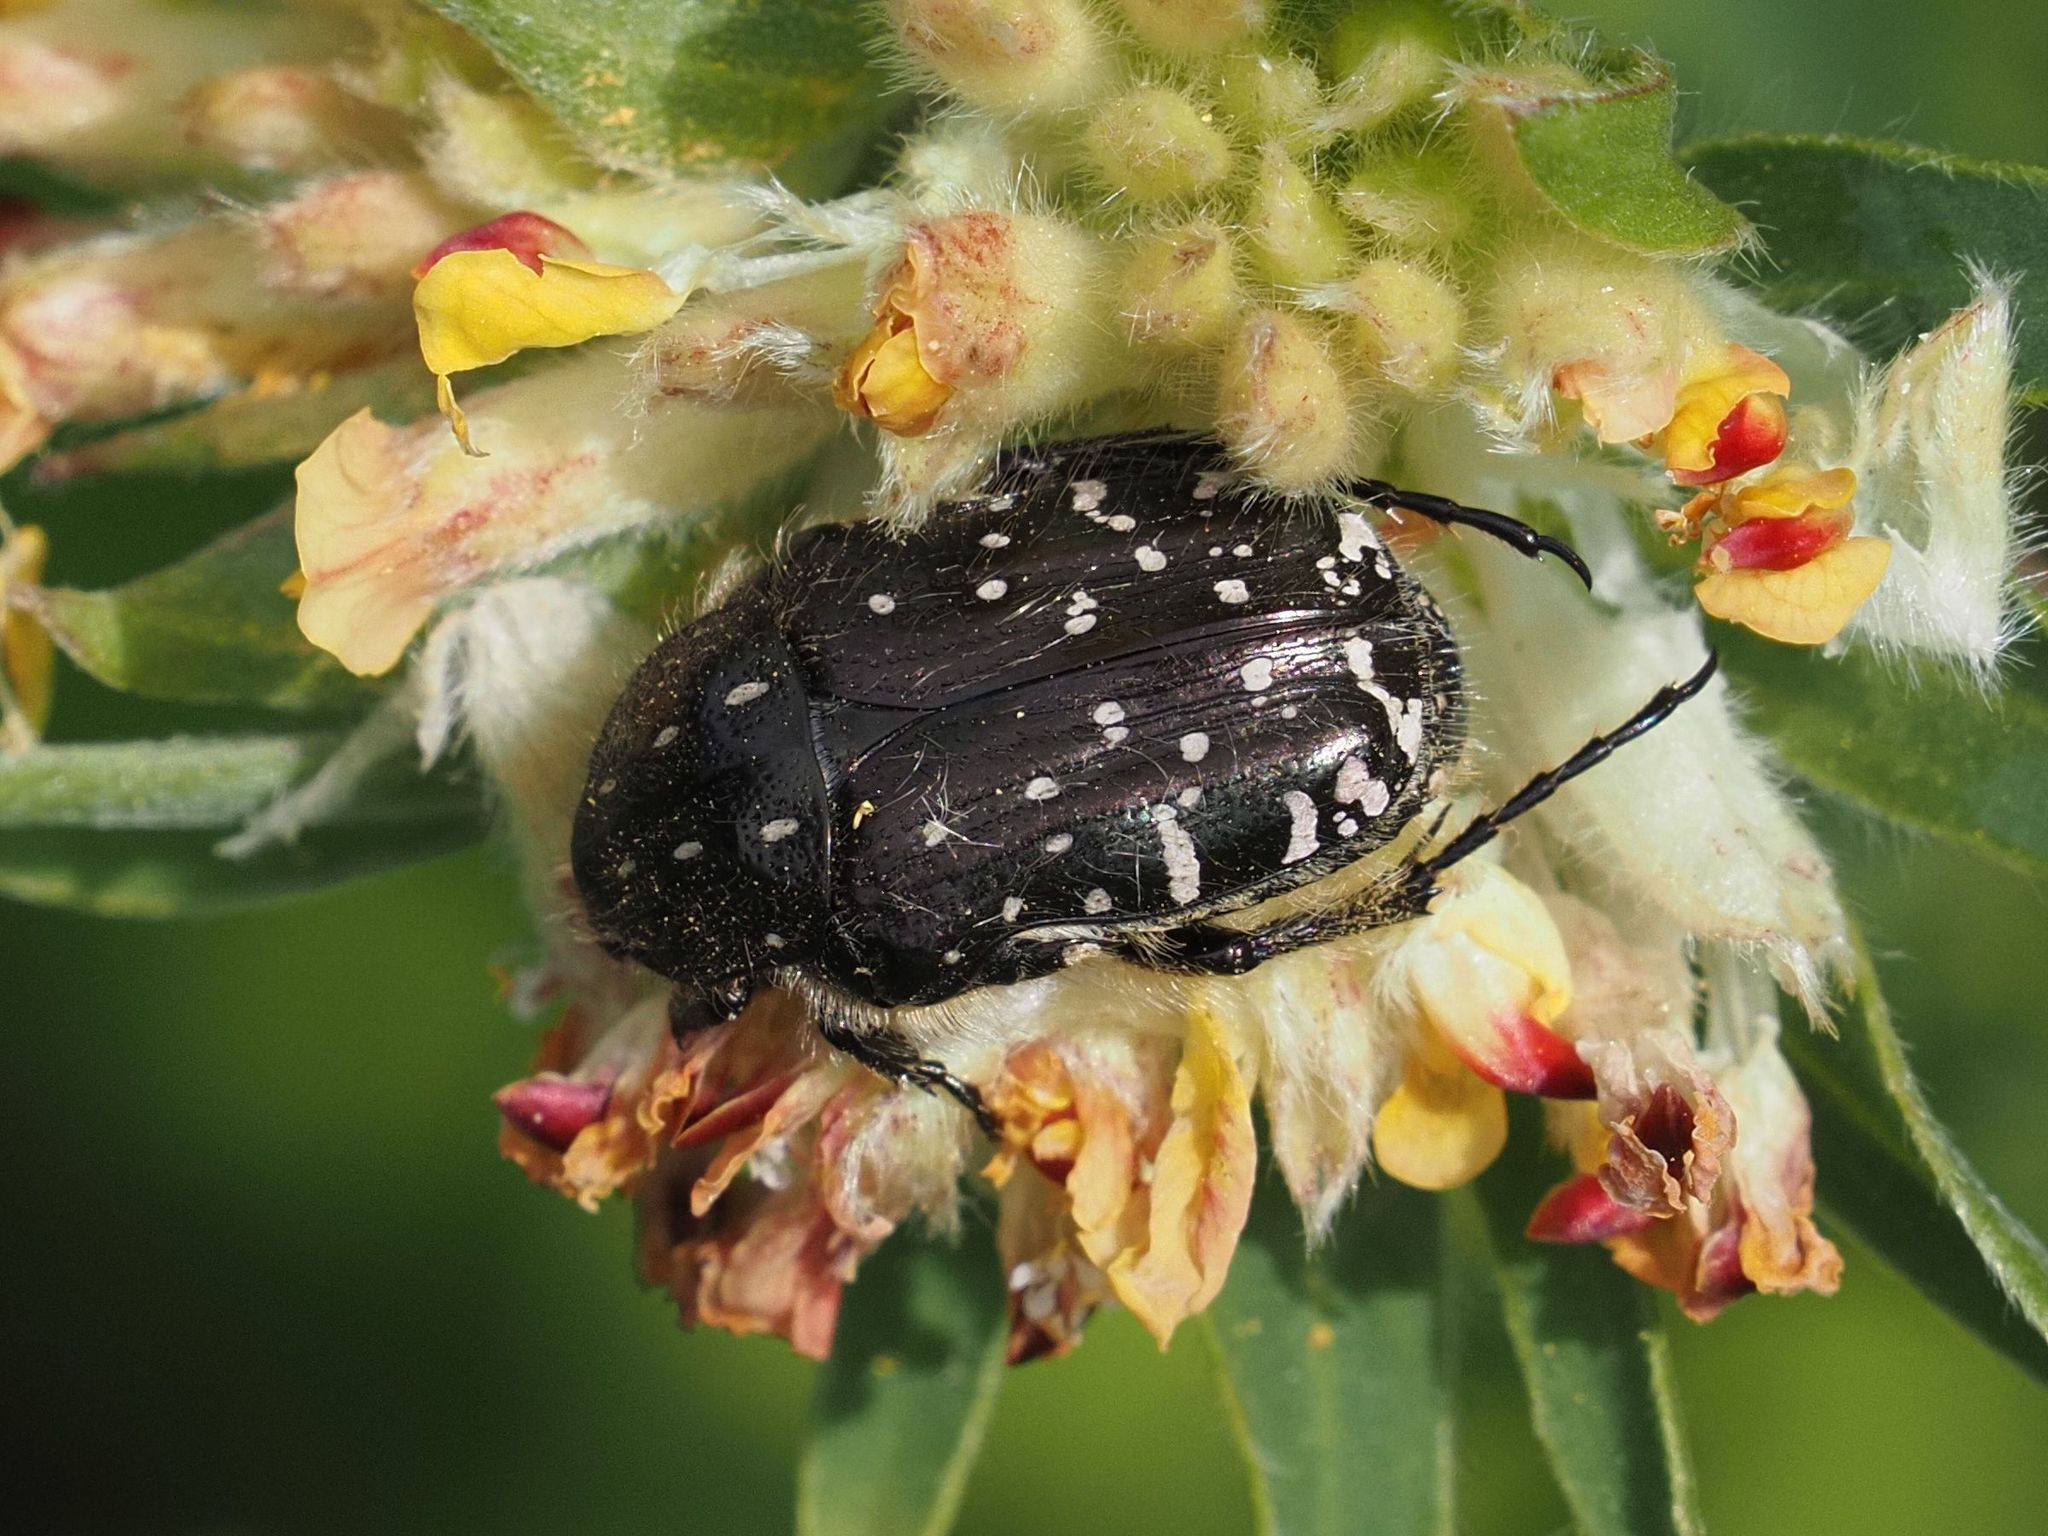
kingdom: Animalia
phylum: Arthropoda
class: Insecta
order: Coleoptera
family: Scarabaeidae
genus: Oxythyrea
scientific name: Oxythyrea funesta
